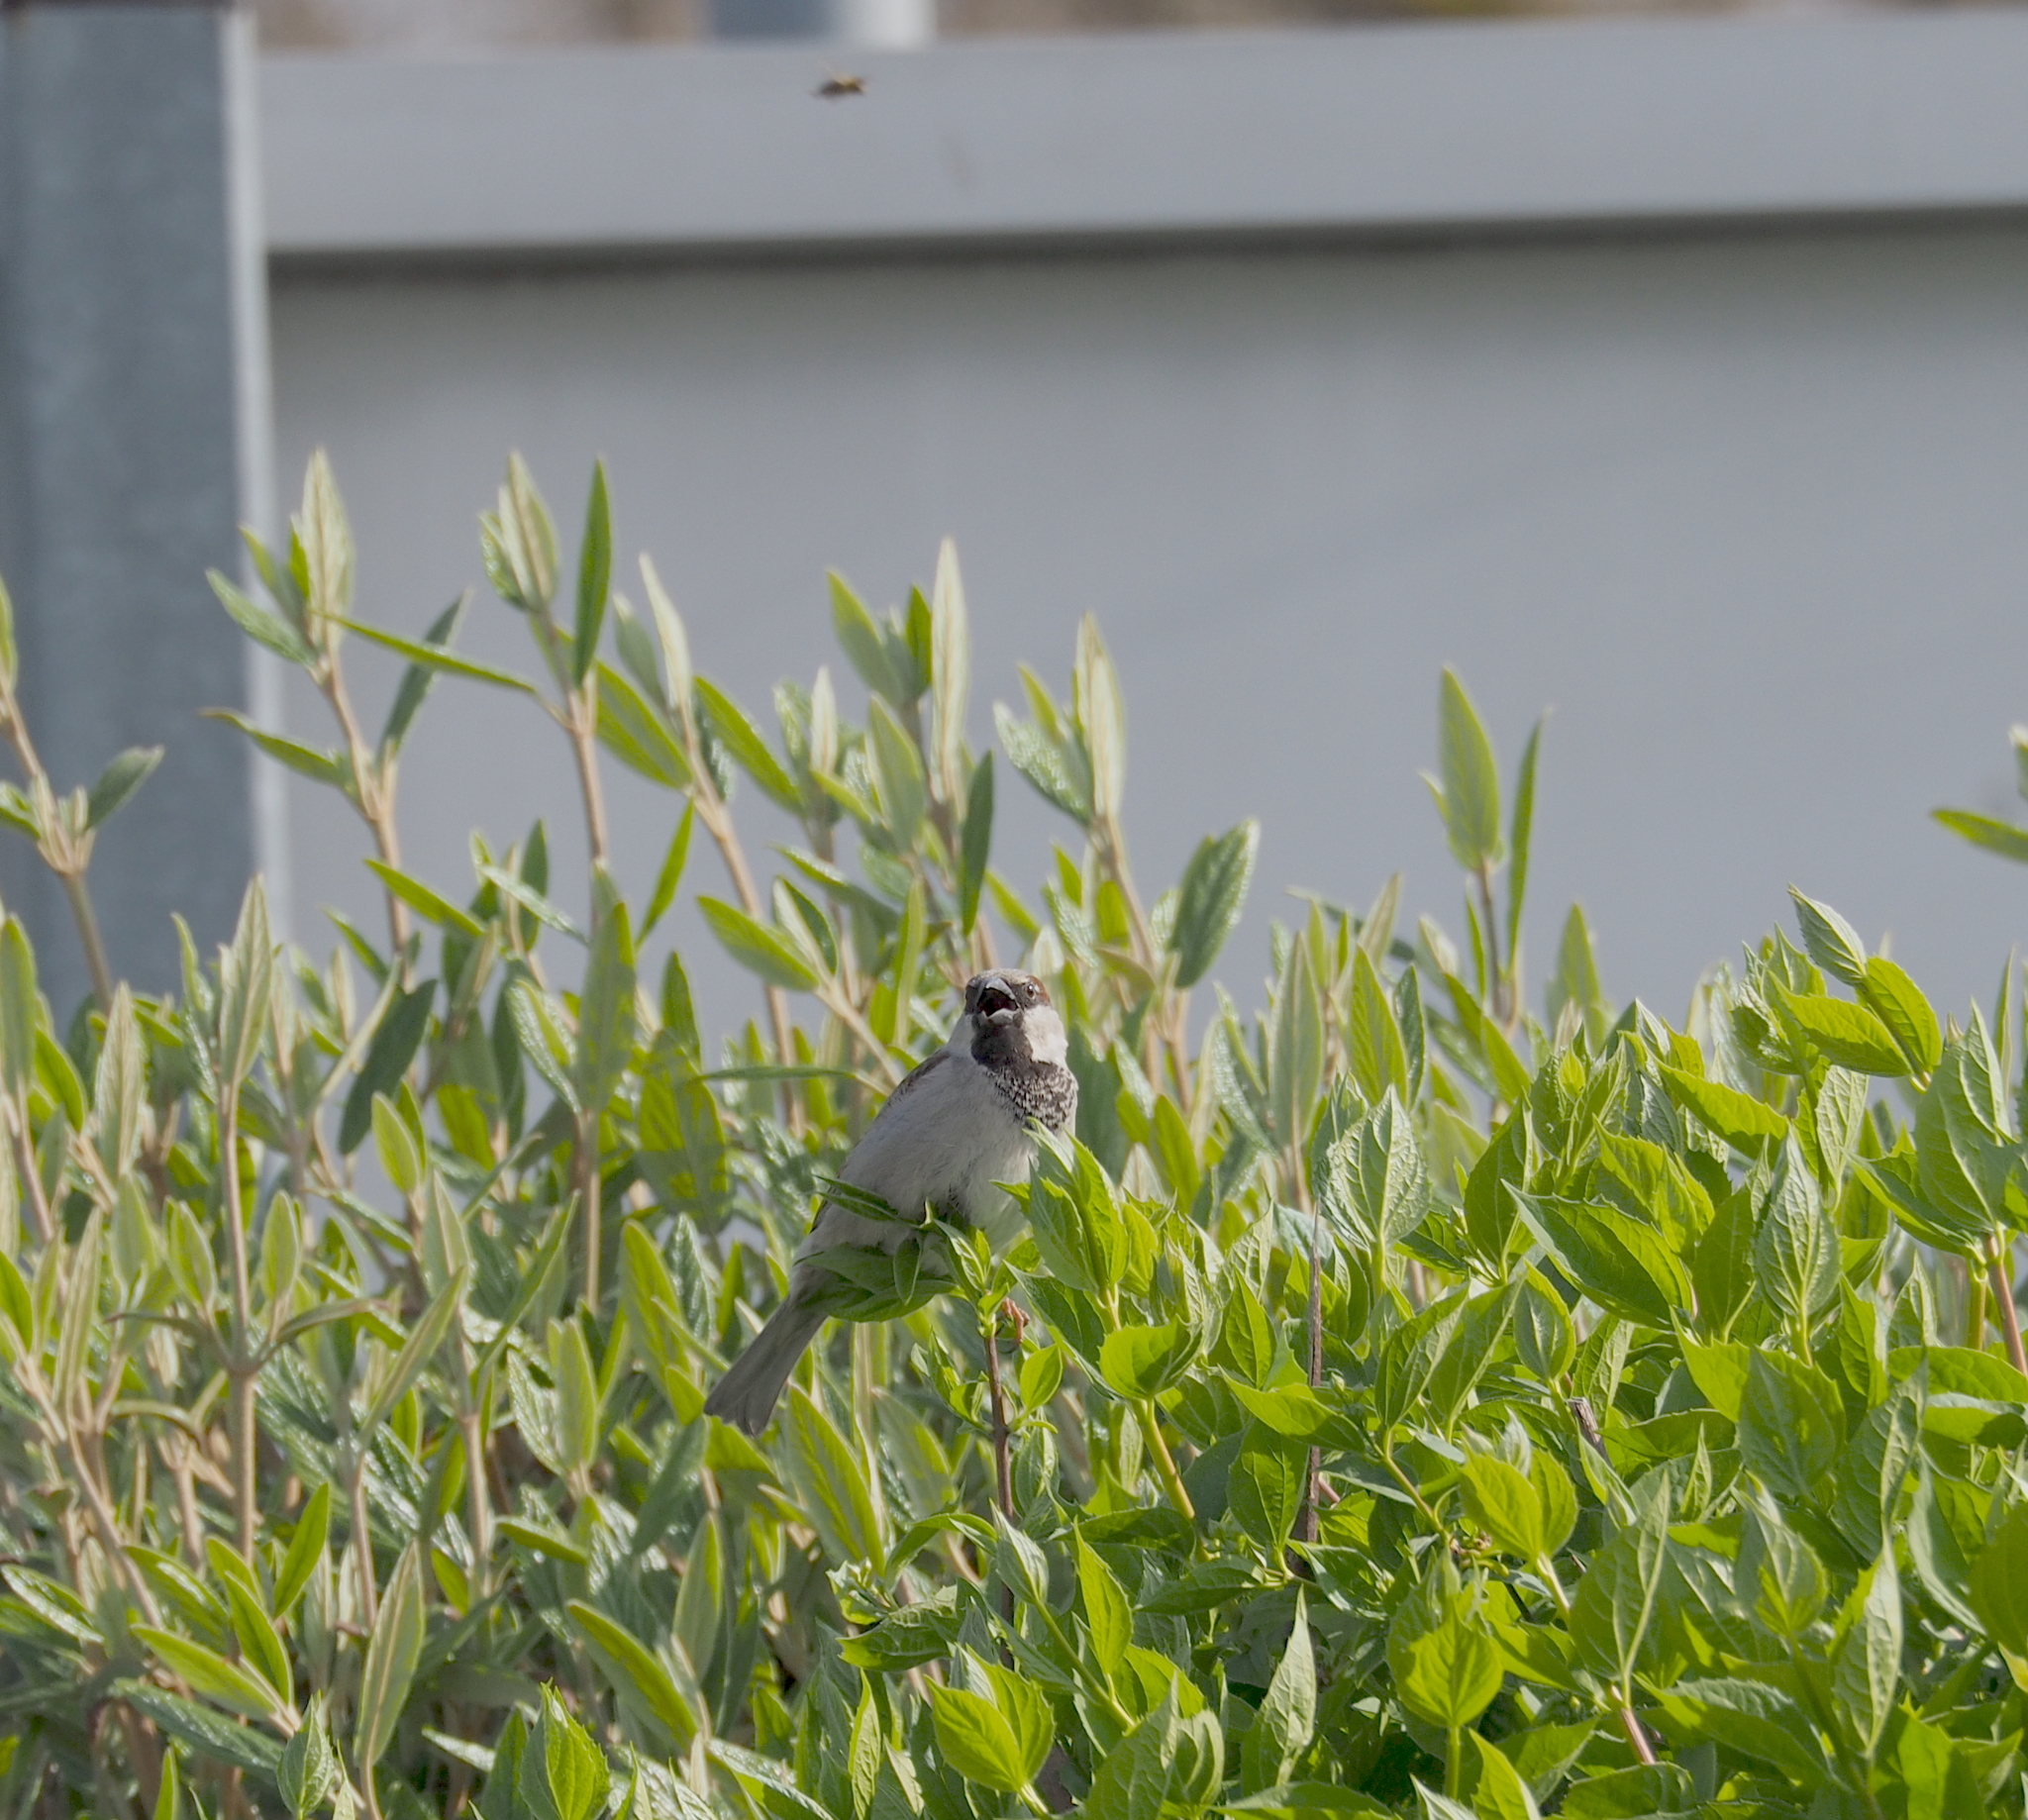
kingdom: Animalia
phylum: Chordata
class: Aves
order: Passeriformes
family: Passeridae
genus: Passer
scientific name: Passer domesticus
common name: House sparrow
